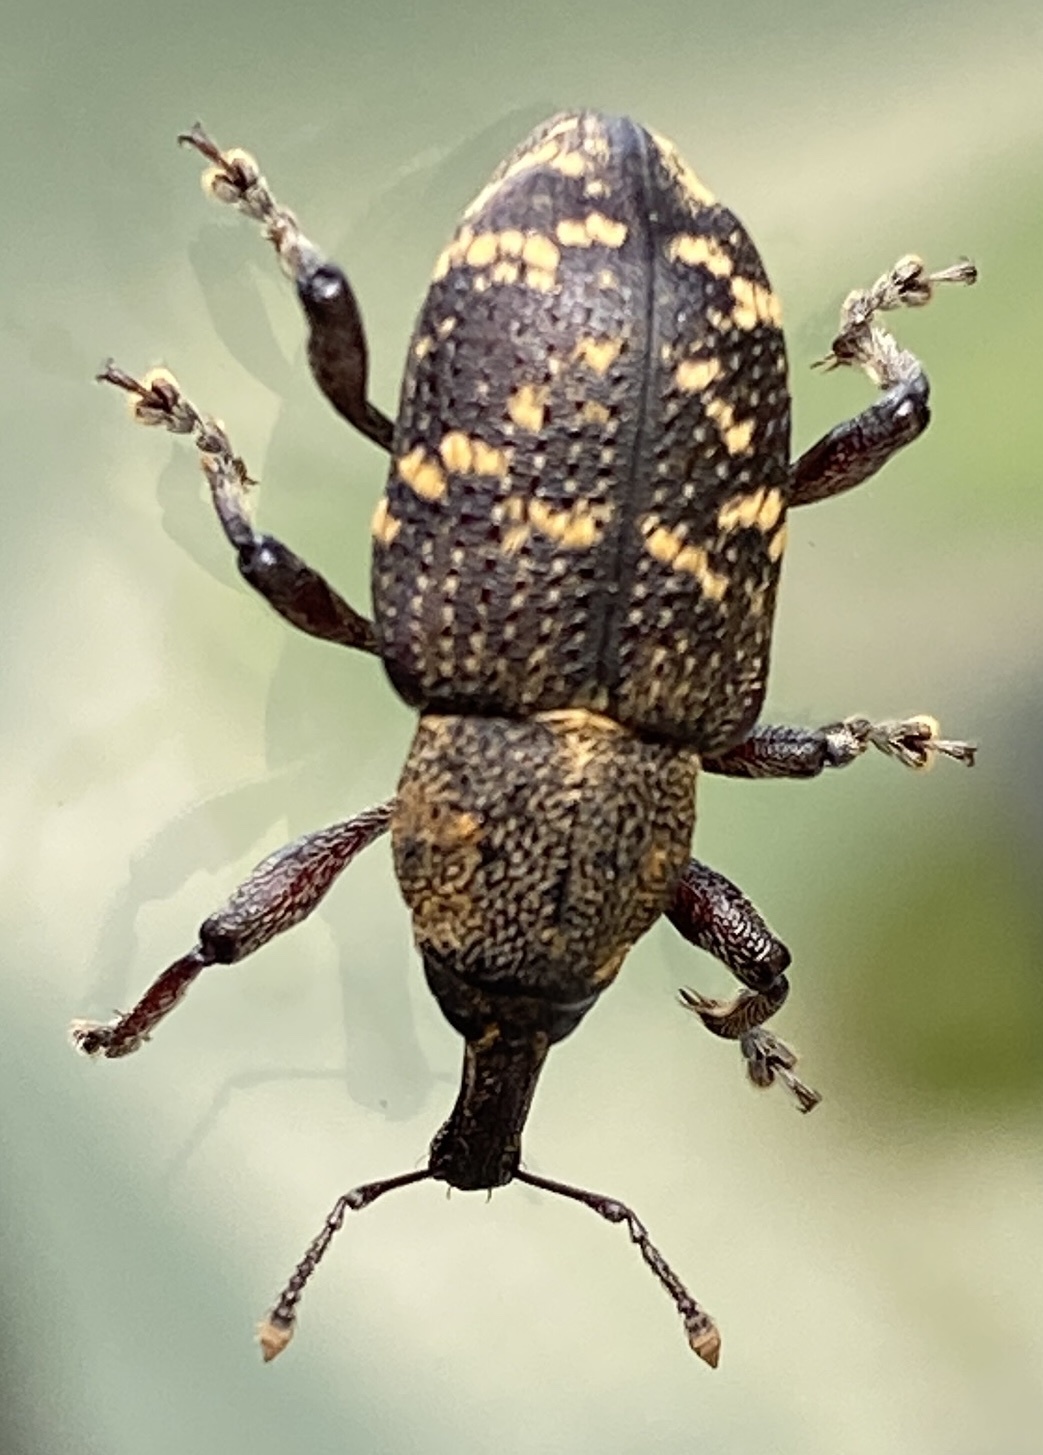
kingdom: Animalia
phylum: Arthropoda
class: Insecta
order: Coleoptera
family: Curculionidae
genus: Hylobius
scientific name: Hylobius abietis
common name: Large pine weevil
